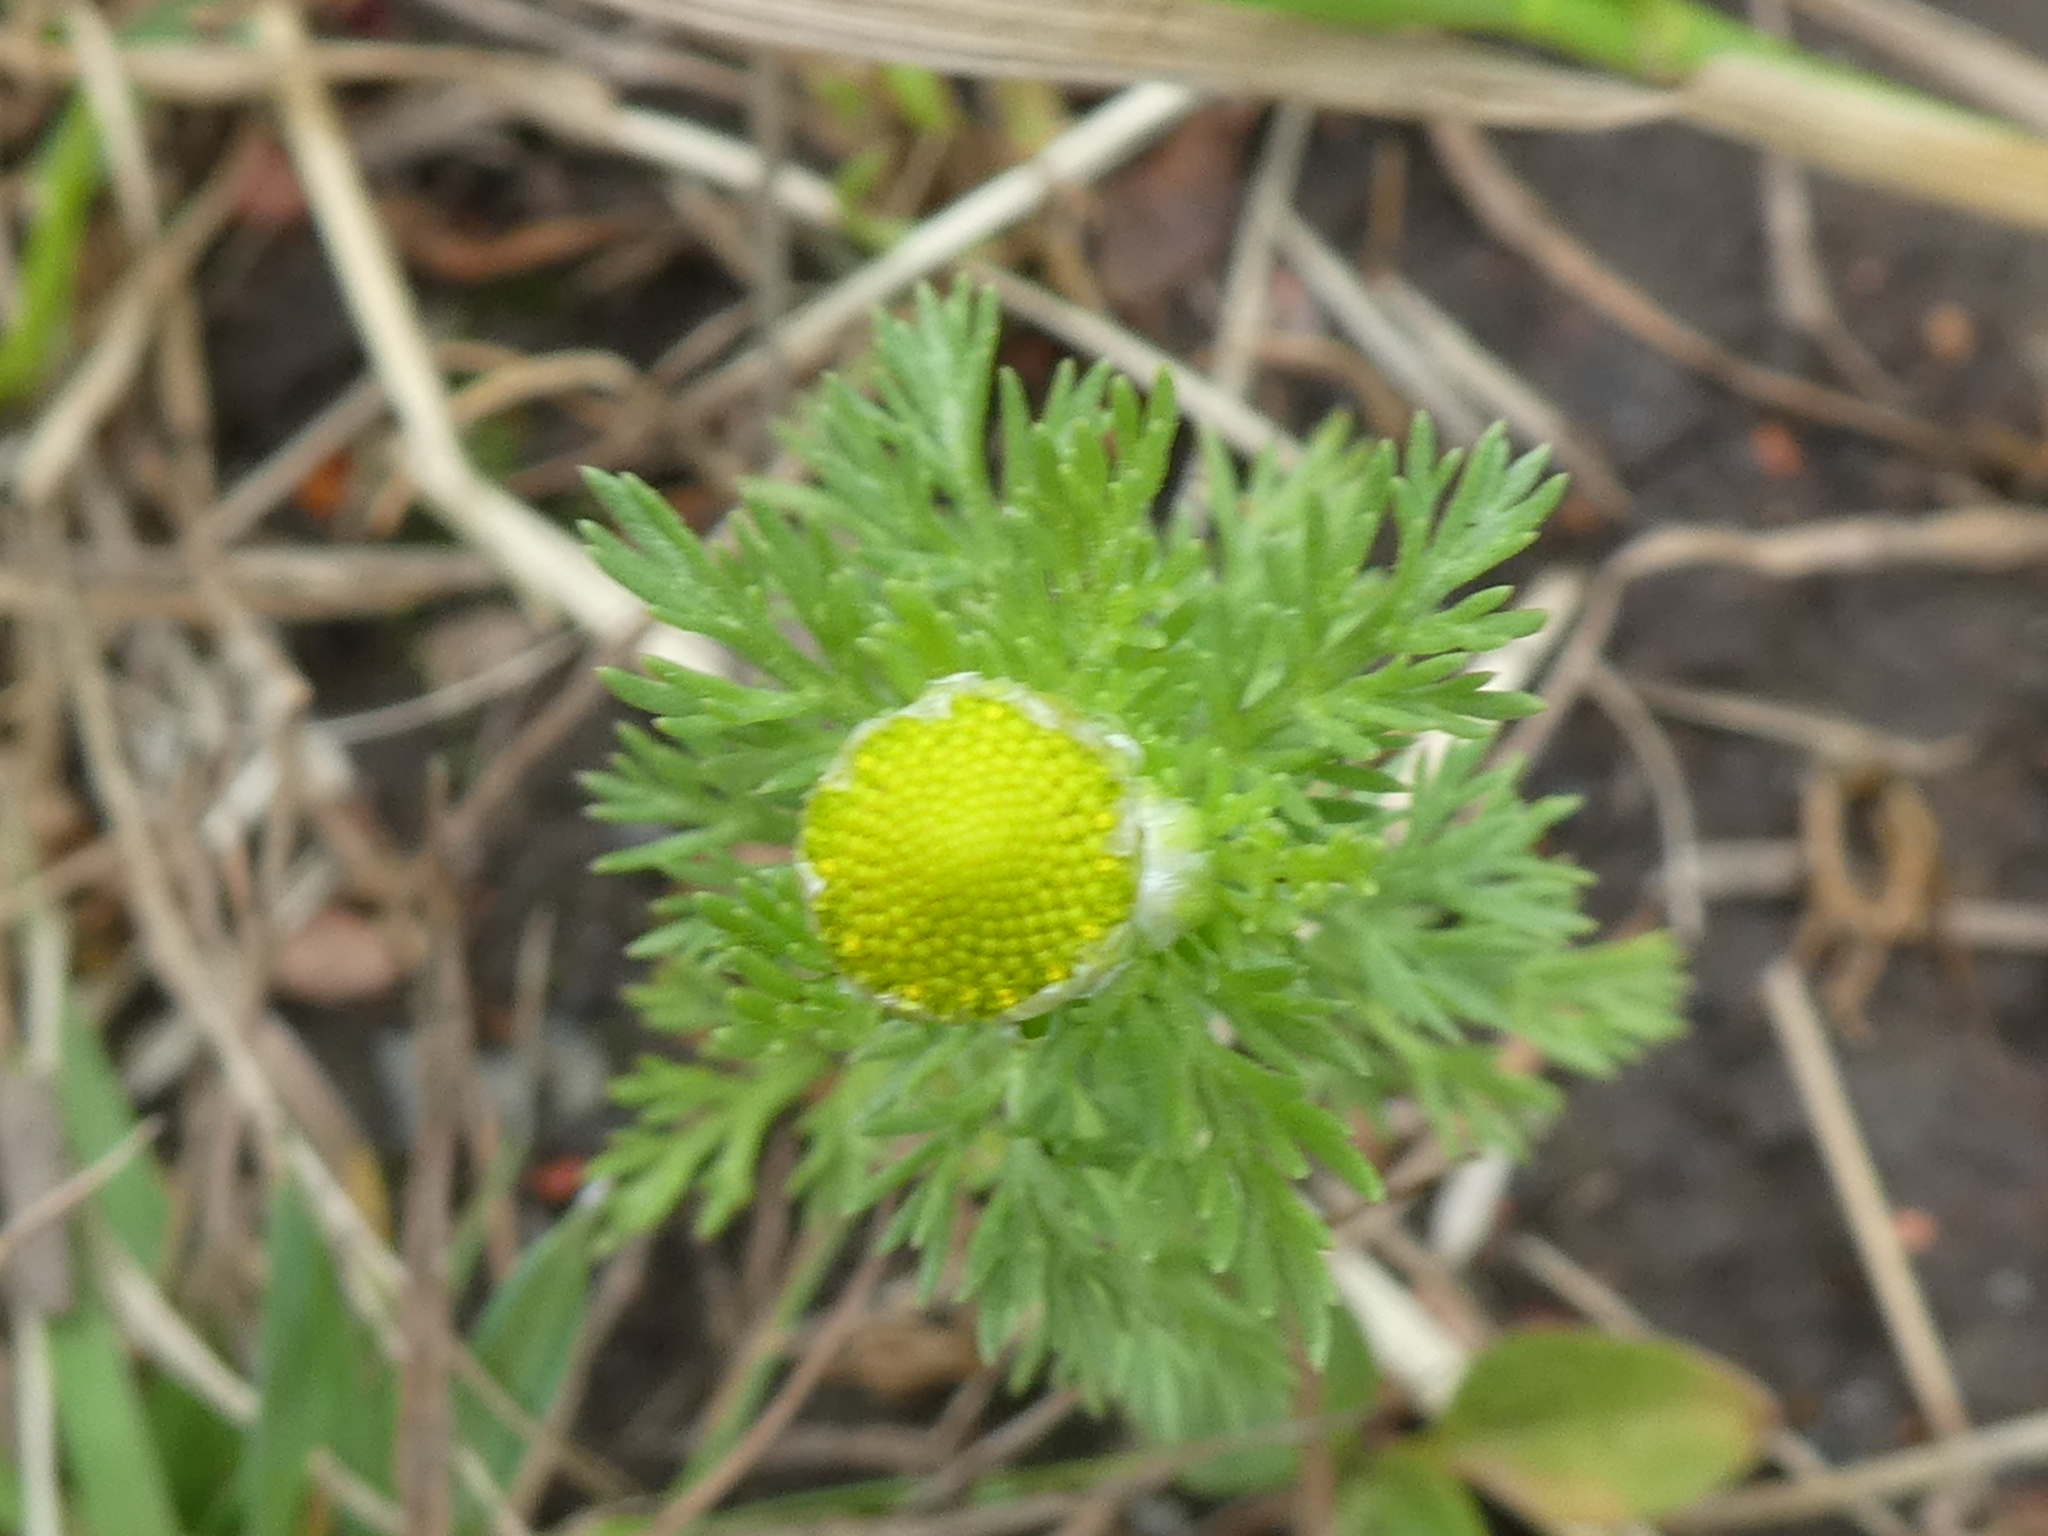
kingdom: Plantae
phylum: Tracheophyta
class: Magnoliopsida
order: Asterales
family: Asteraceae
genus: Matricaria
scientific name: Matricaria discoidea
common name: Disc mayweed
